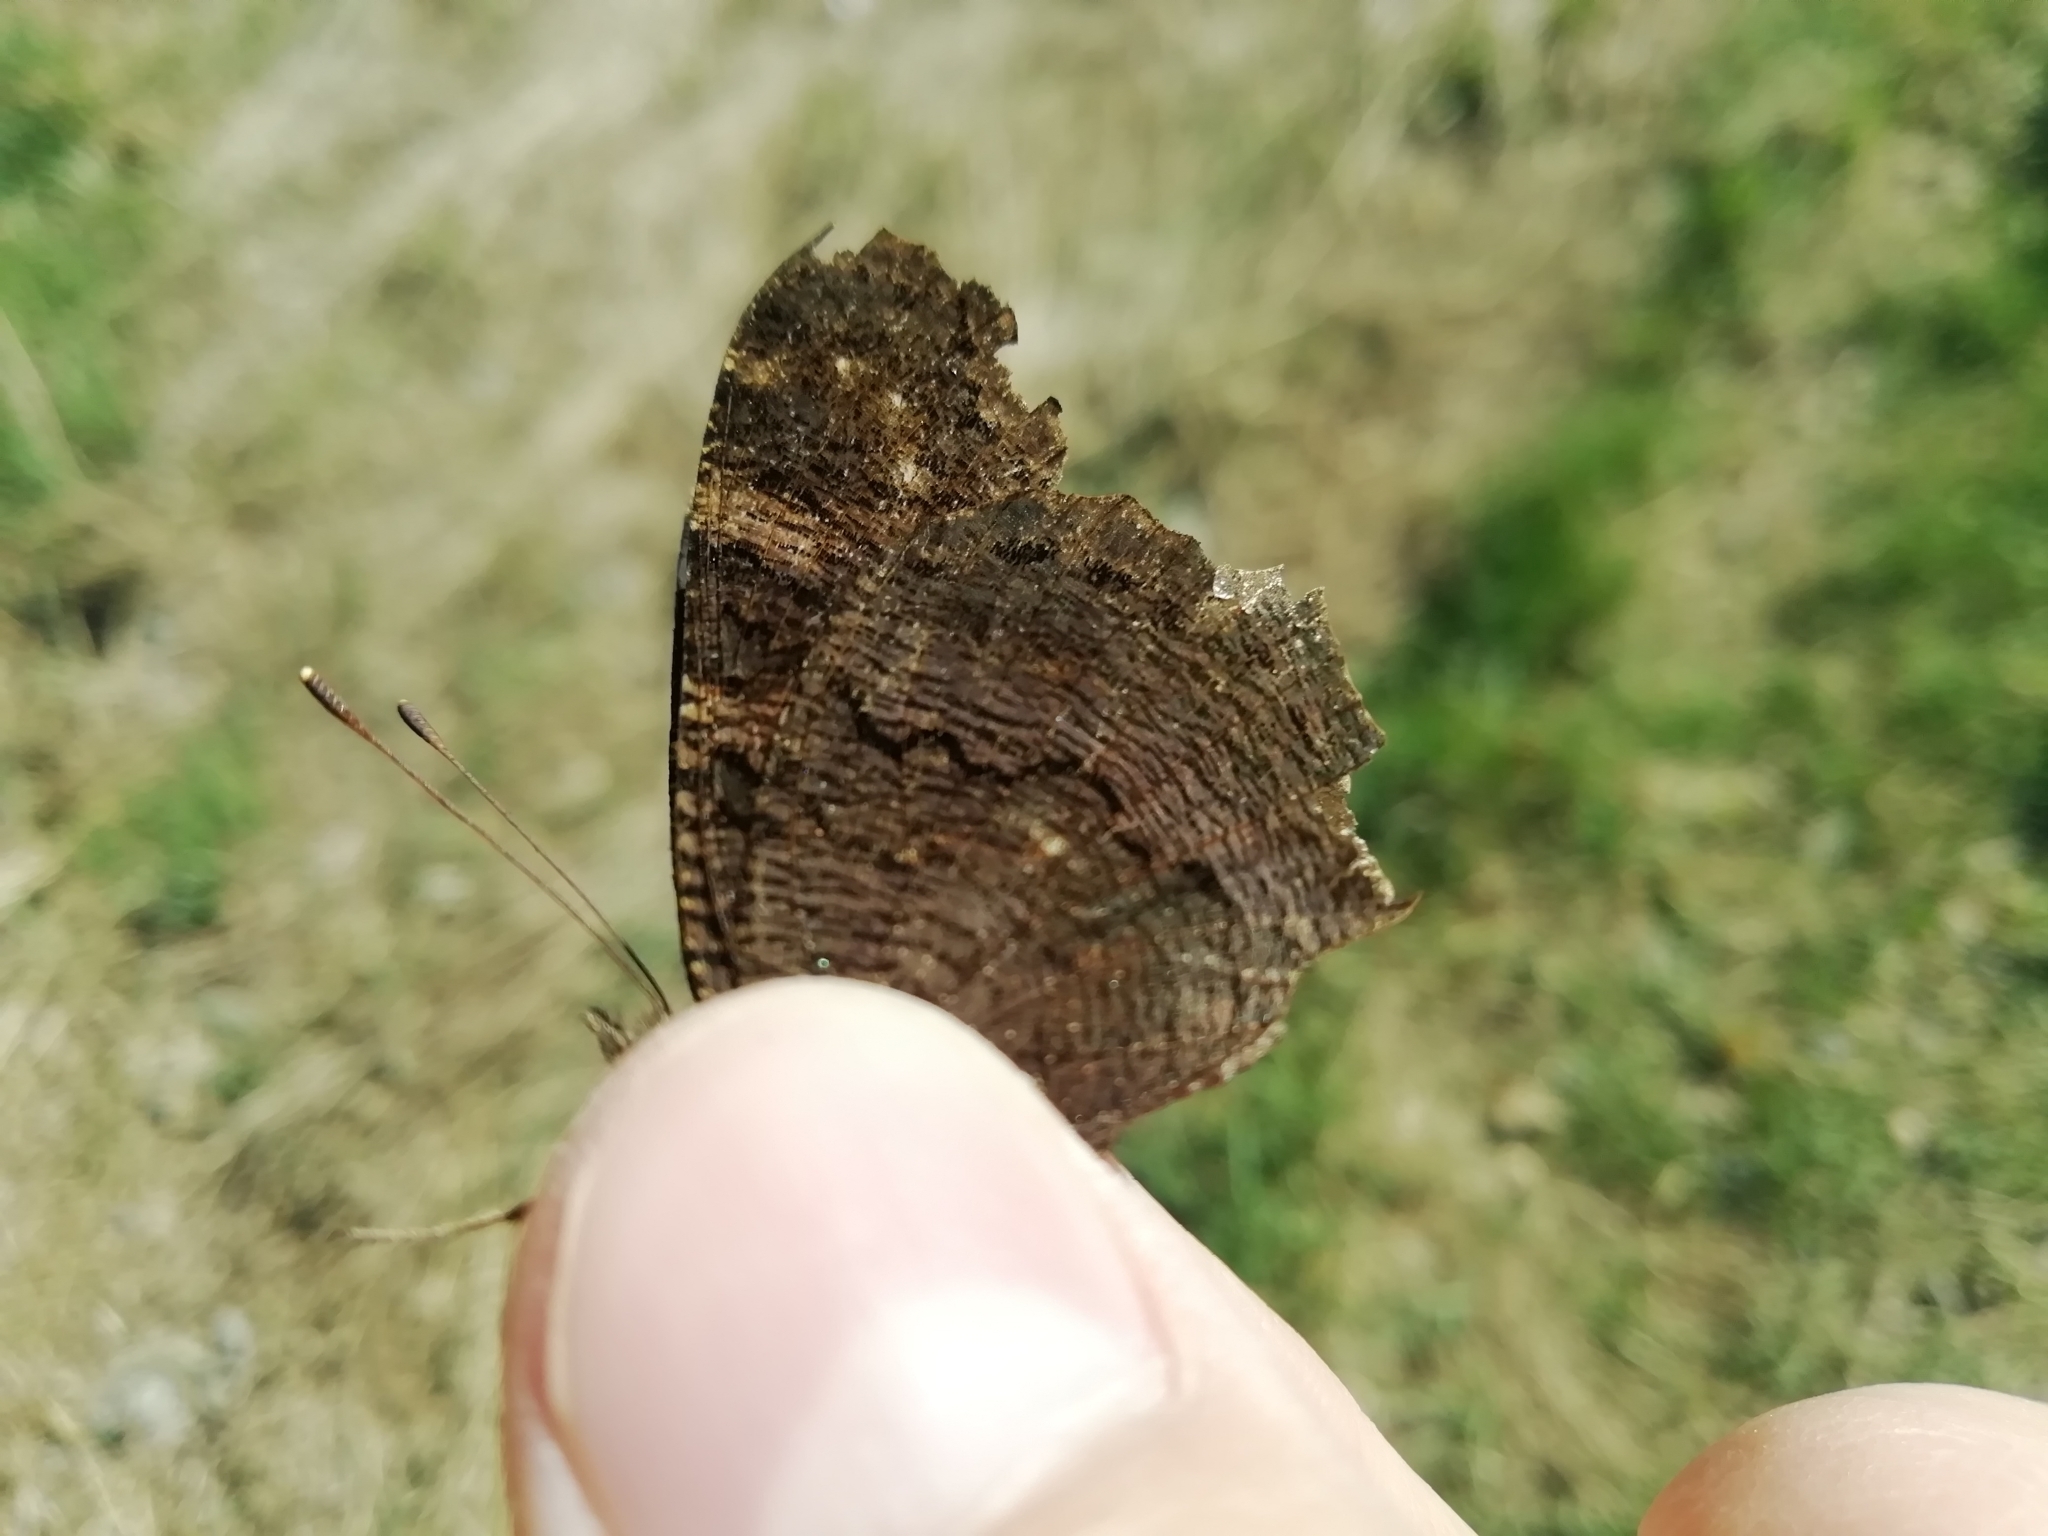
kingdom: Animalia
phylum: Arthropoda
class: Insecta
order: Lepidoptera
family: Nymphalidae
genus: Aglais
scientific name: Aglais io
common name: Peacock
